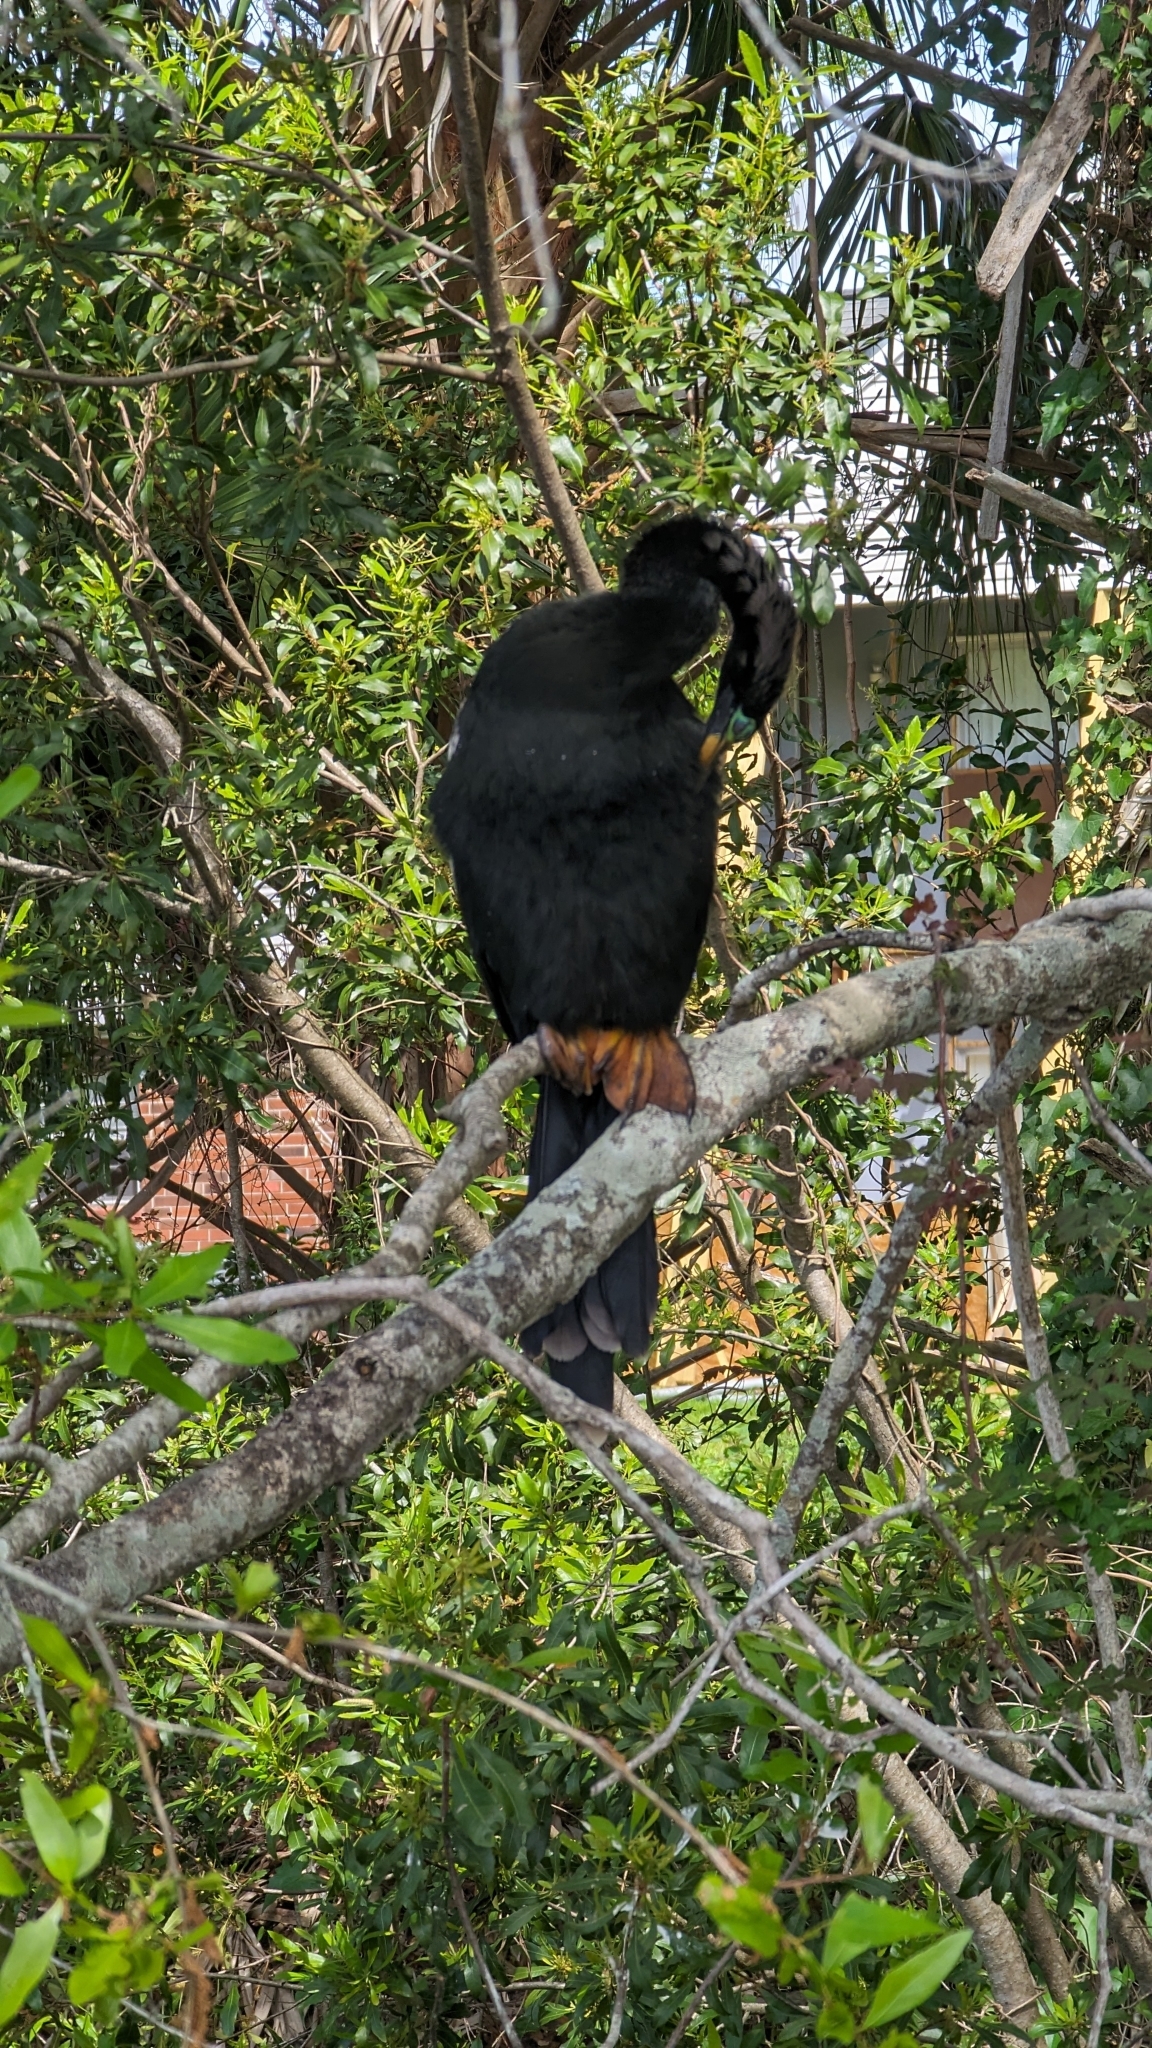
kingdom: Animalia
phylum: Chordata
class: Aves
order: Suliformes
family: Anhingidae
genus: Anhinga
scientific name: Anhinga anhinga
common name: Anhinga
